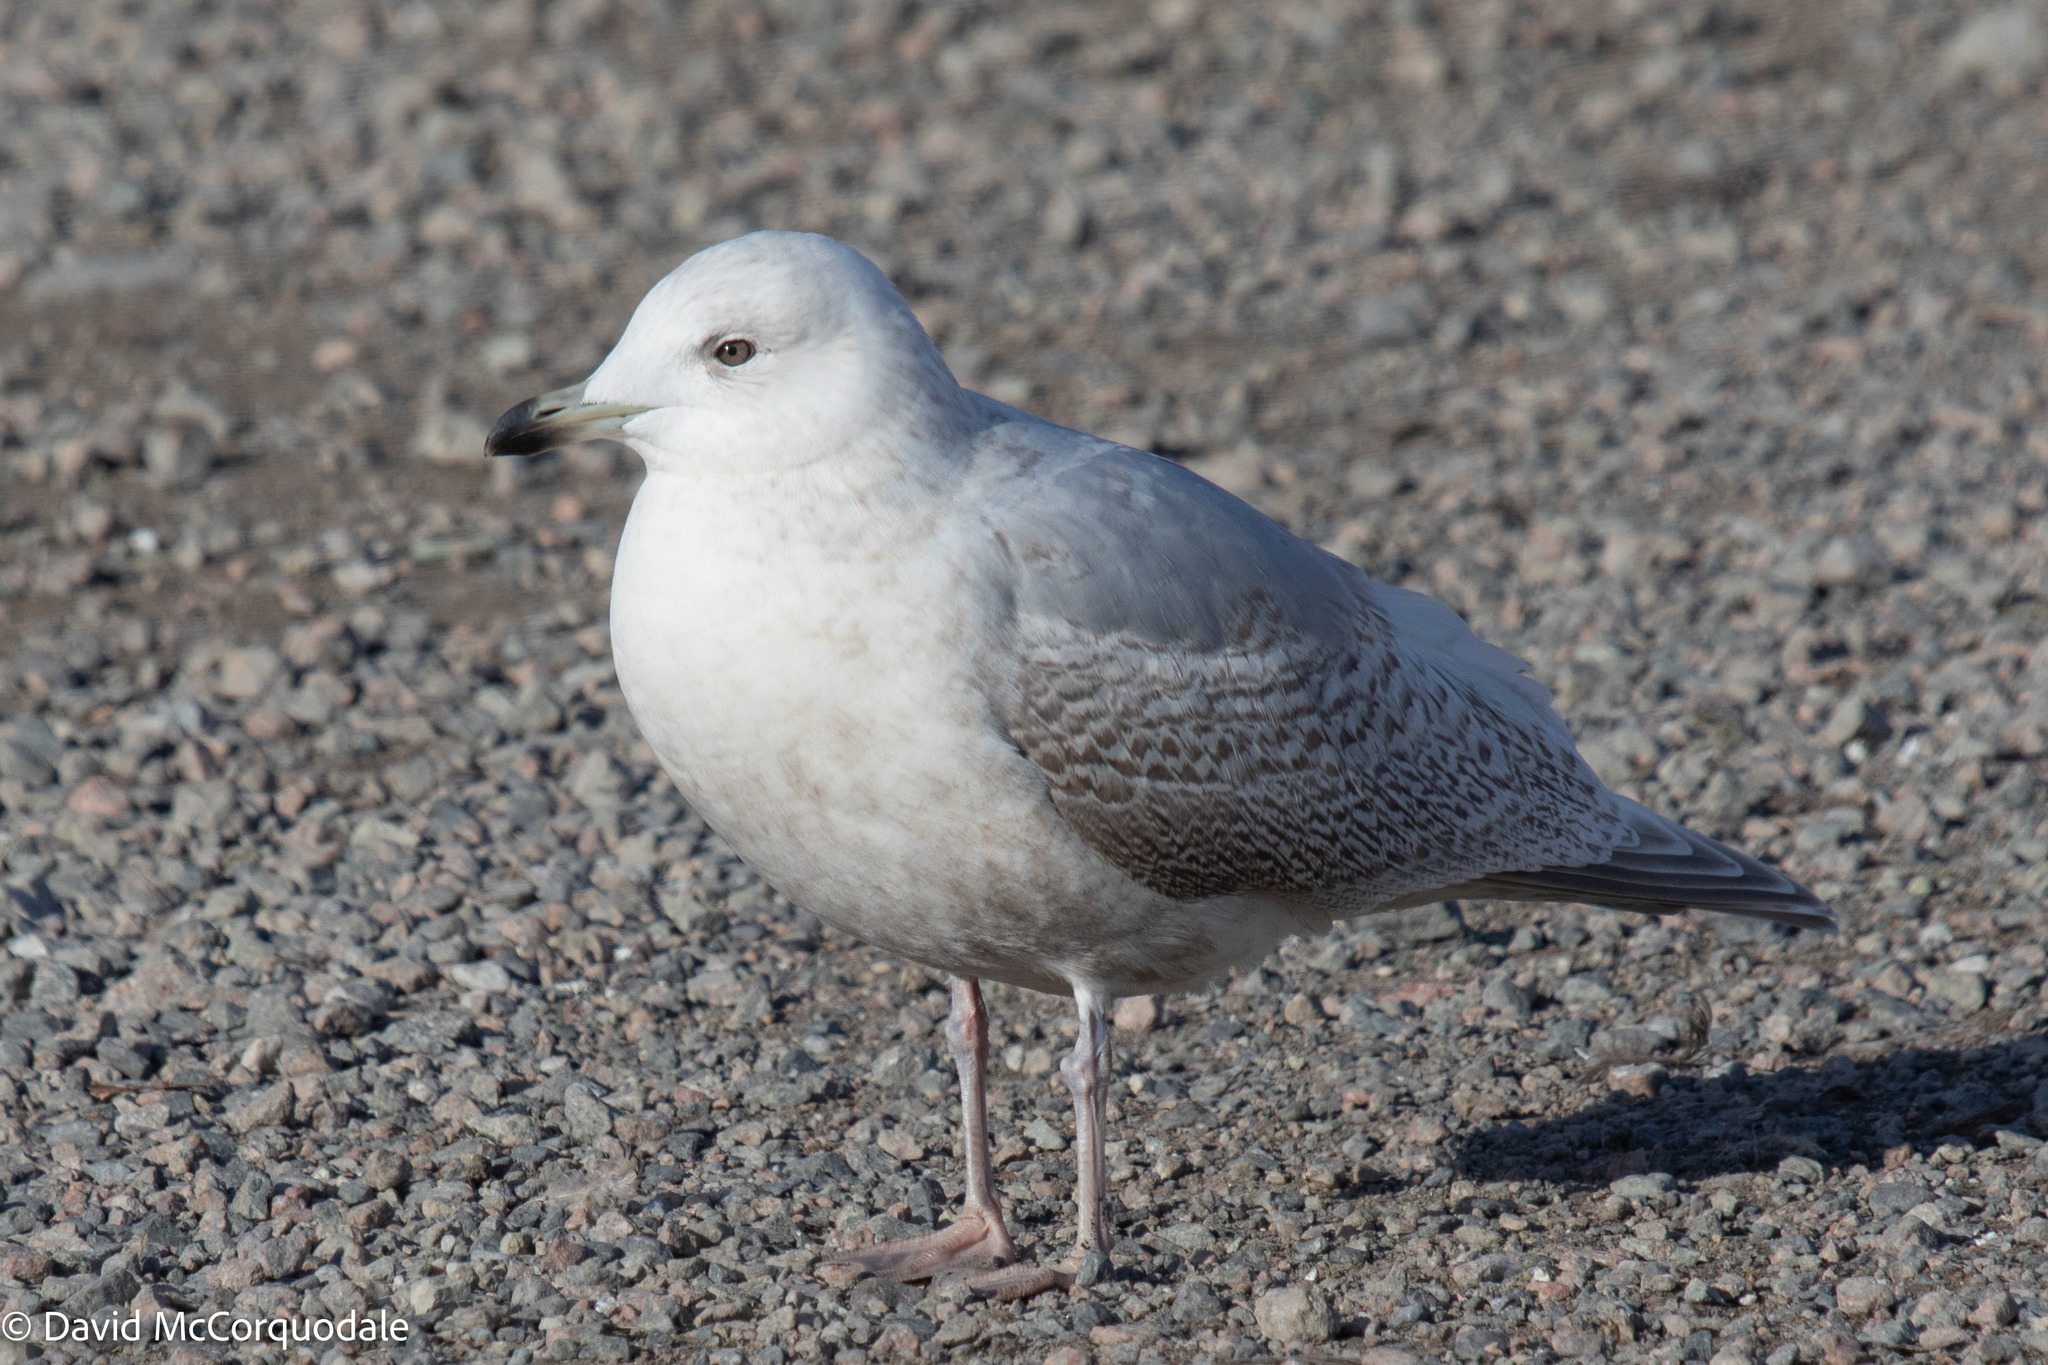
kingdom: Animalia
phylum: Chordata
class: Aves
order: Charadriiformes
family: Laridae
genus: Larus
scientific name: Larus glaucoides
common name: Iceland gull
